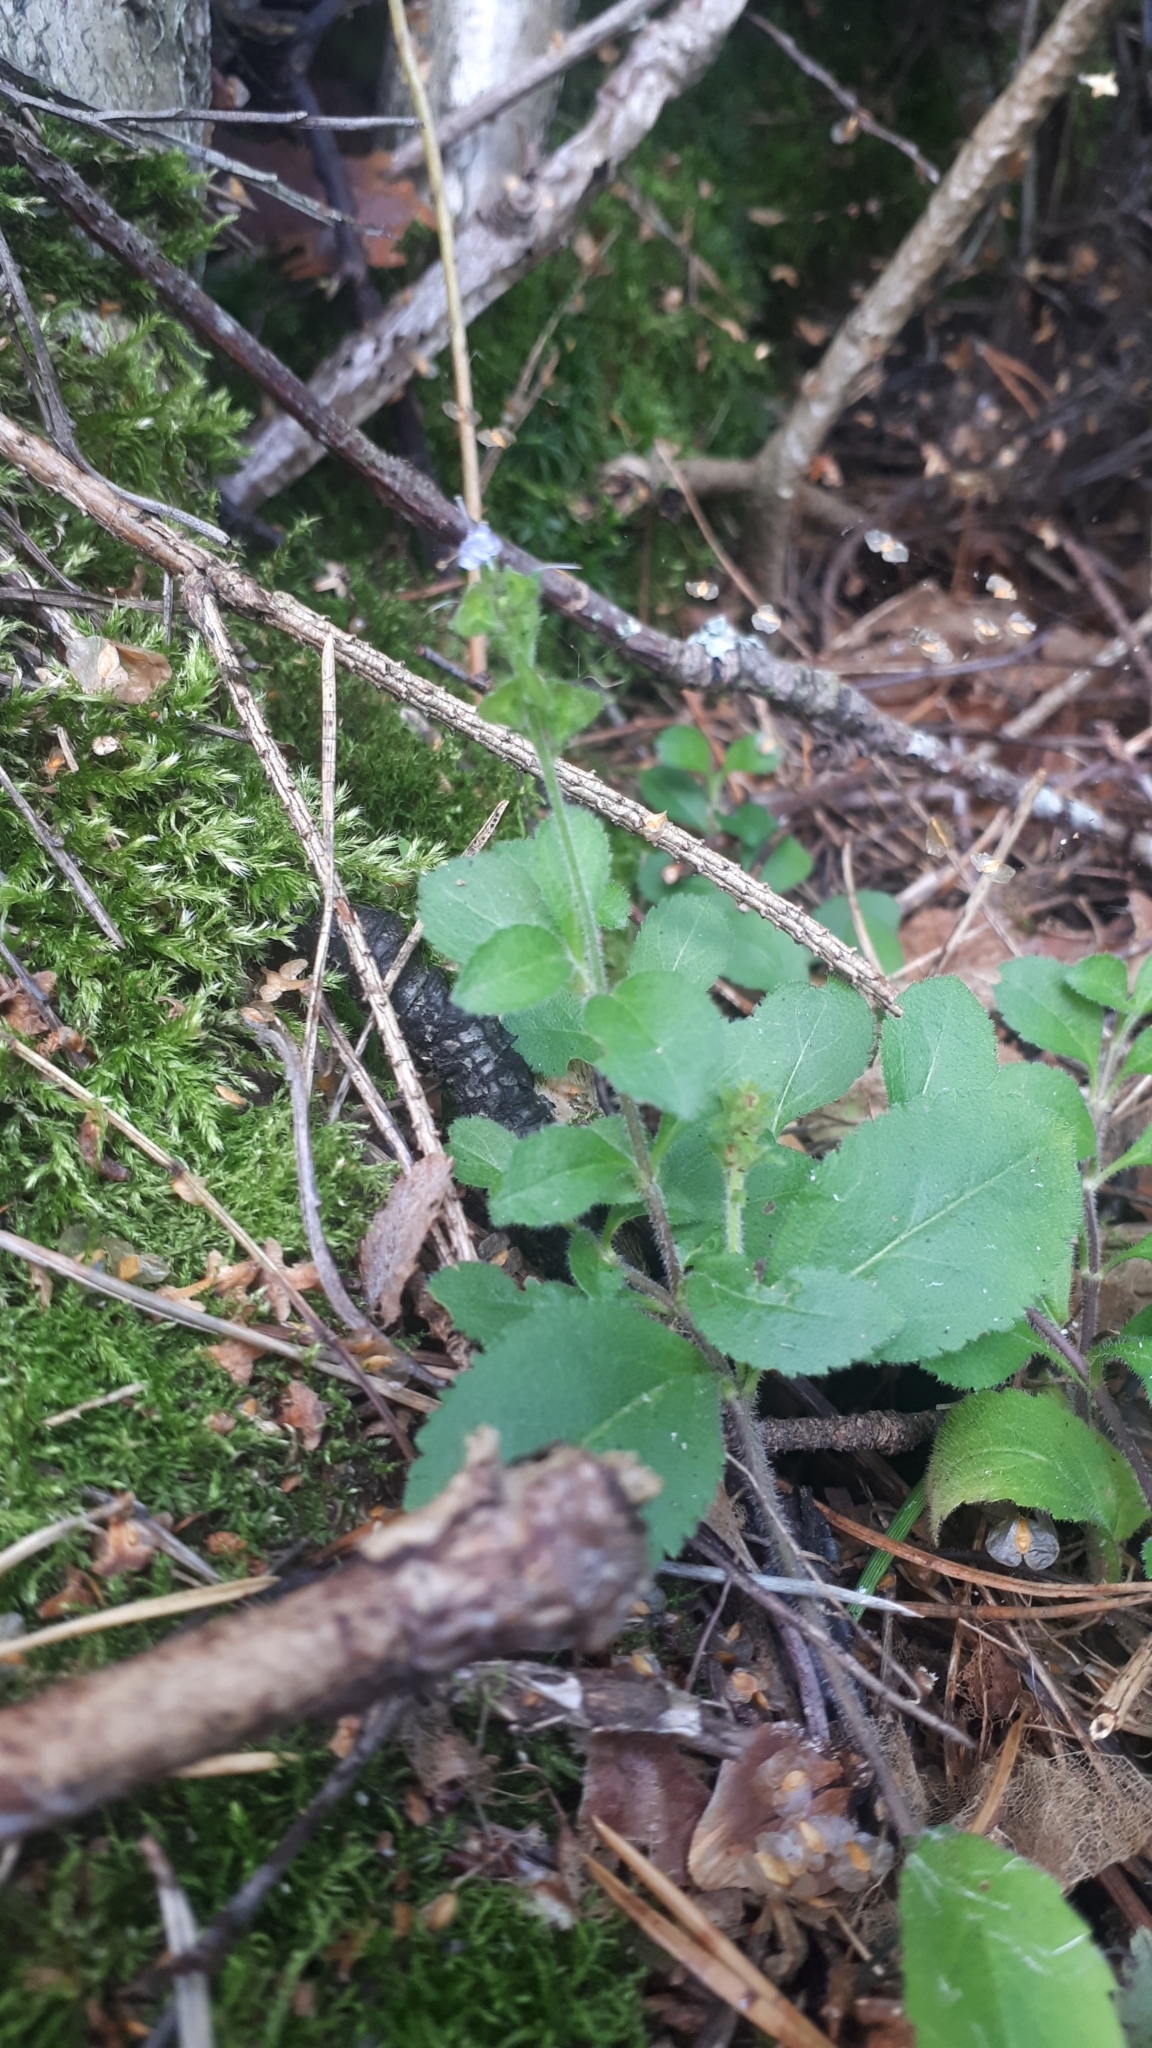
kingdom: Plantae
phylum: Tracheophyta
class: Magnoliopsida
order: Lamiales
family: Plantaginaceae
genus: Veronica
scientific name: Veronica officinalis
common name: Common speedwell
